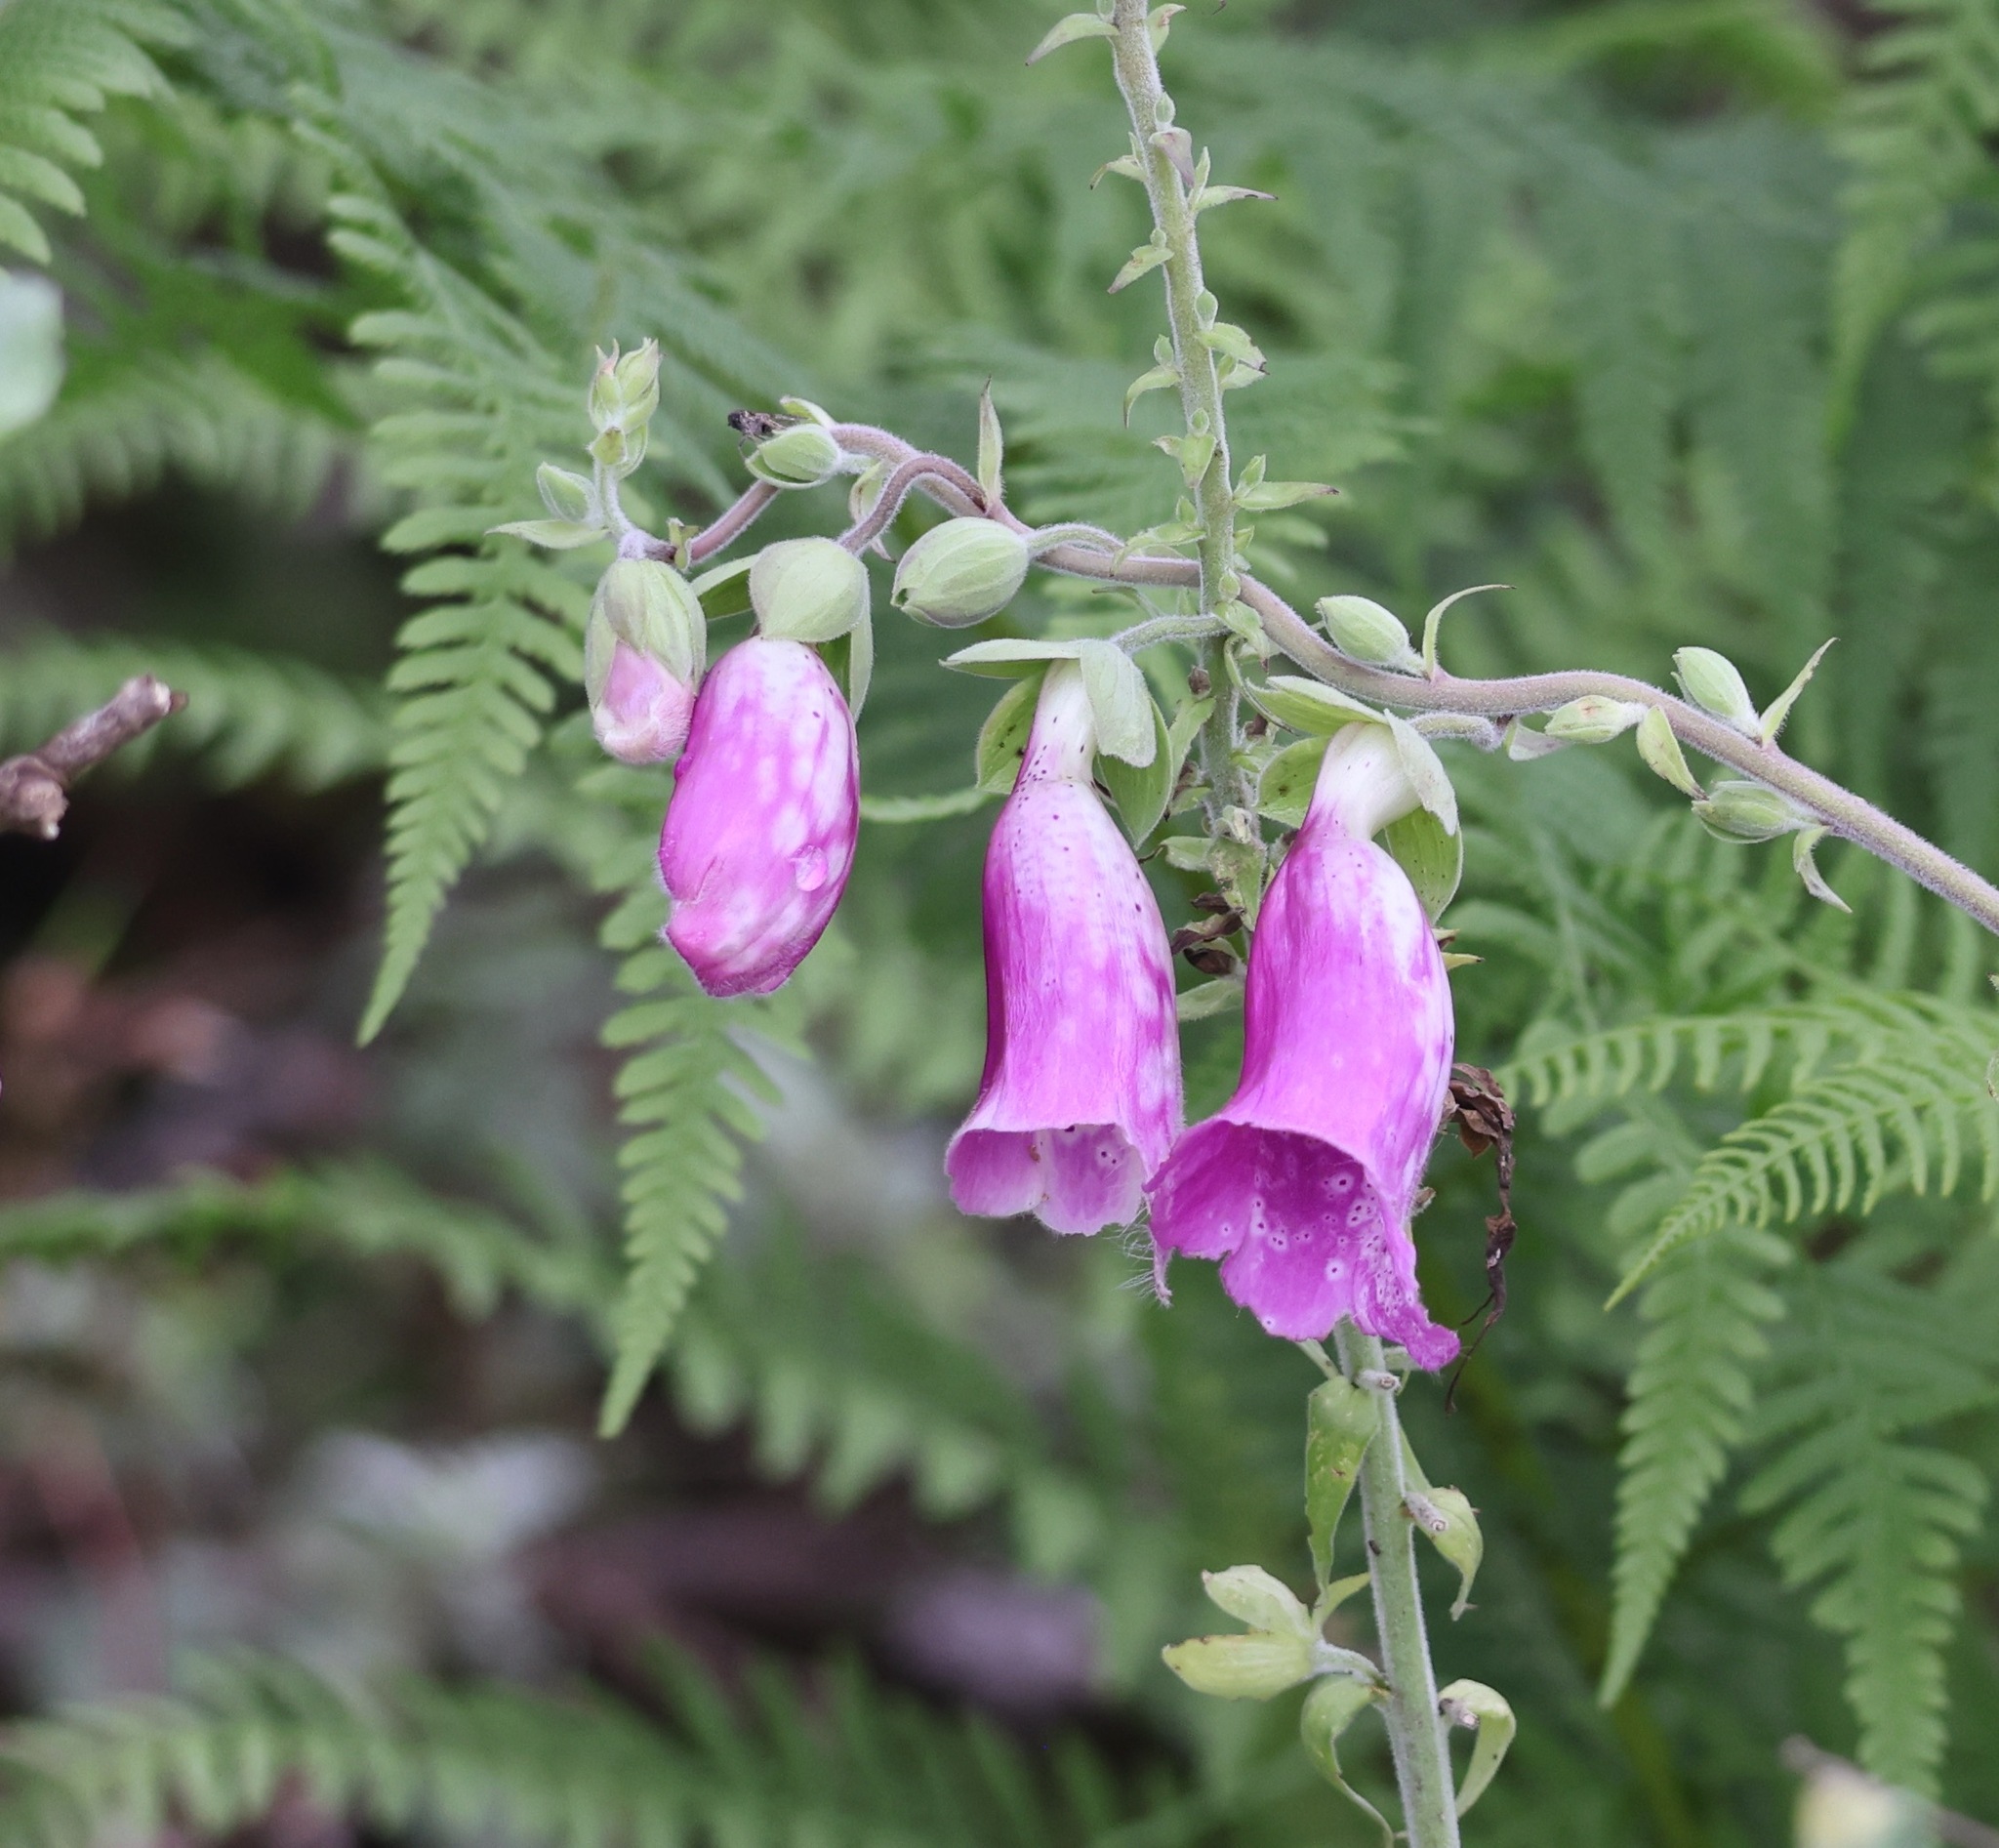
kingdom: Plantae
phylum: Tracheophyta
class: Magnoliopsida
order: Lamiales
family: Plantaginaceae
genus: Digitalis
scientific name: Digitalis purpurea
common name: Foxglove
